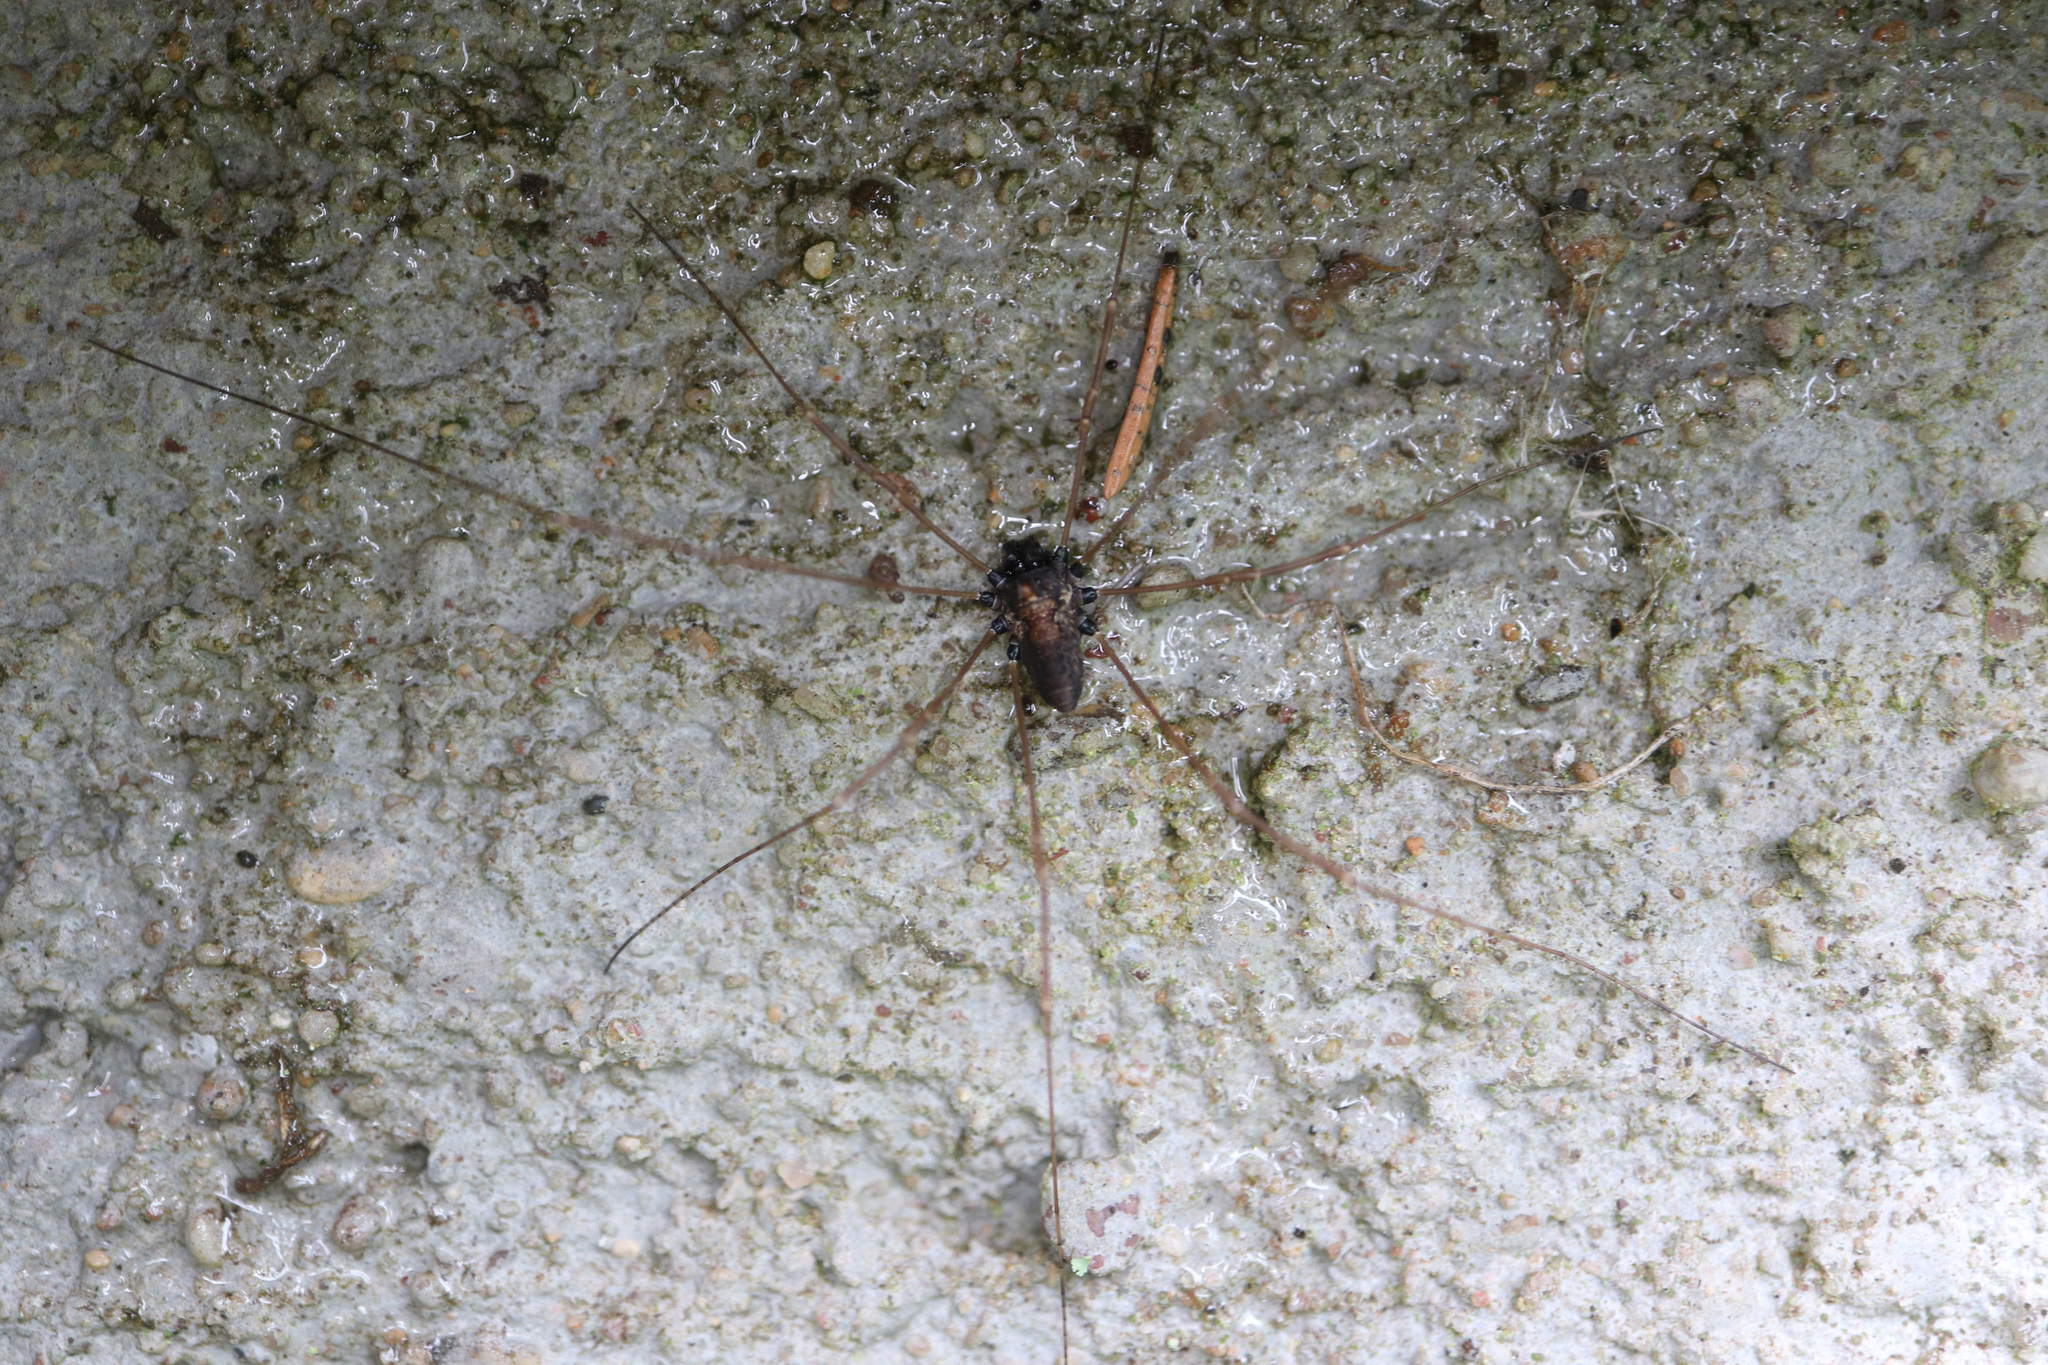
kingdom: Animalia
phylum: Arthropoda
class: Arachnida
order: Opiliones
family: Phalangiidae
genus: Platybunus
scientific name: Platybunus pinetorum
